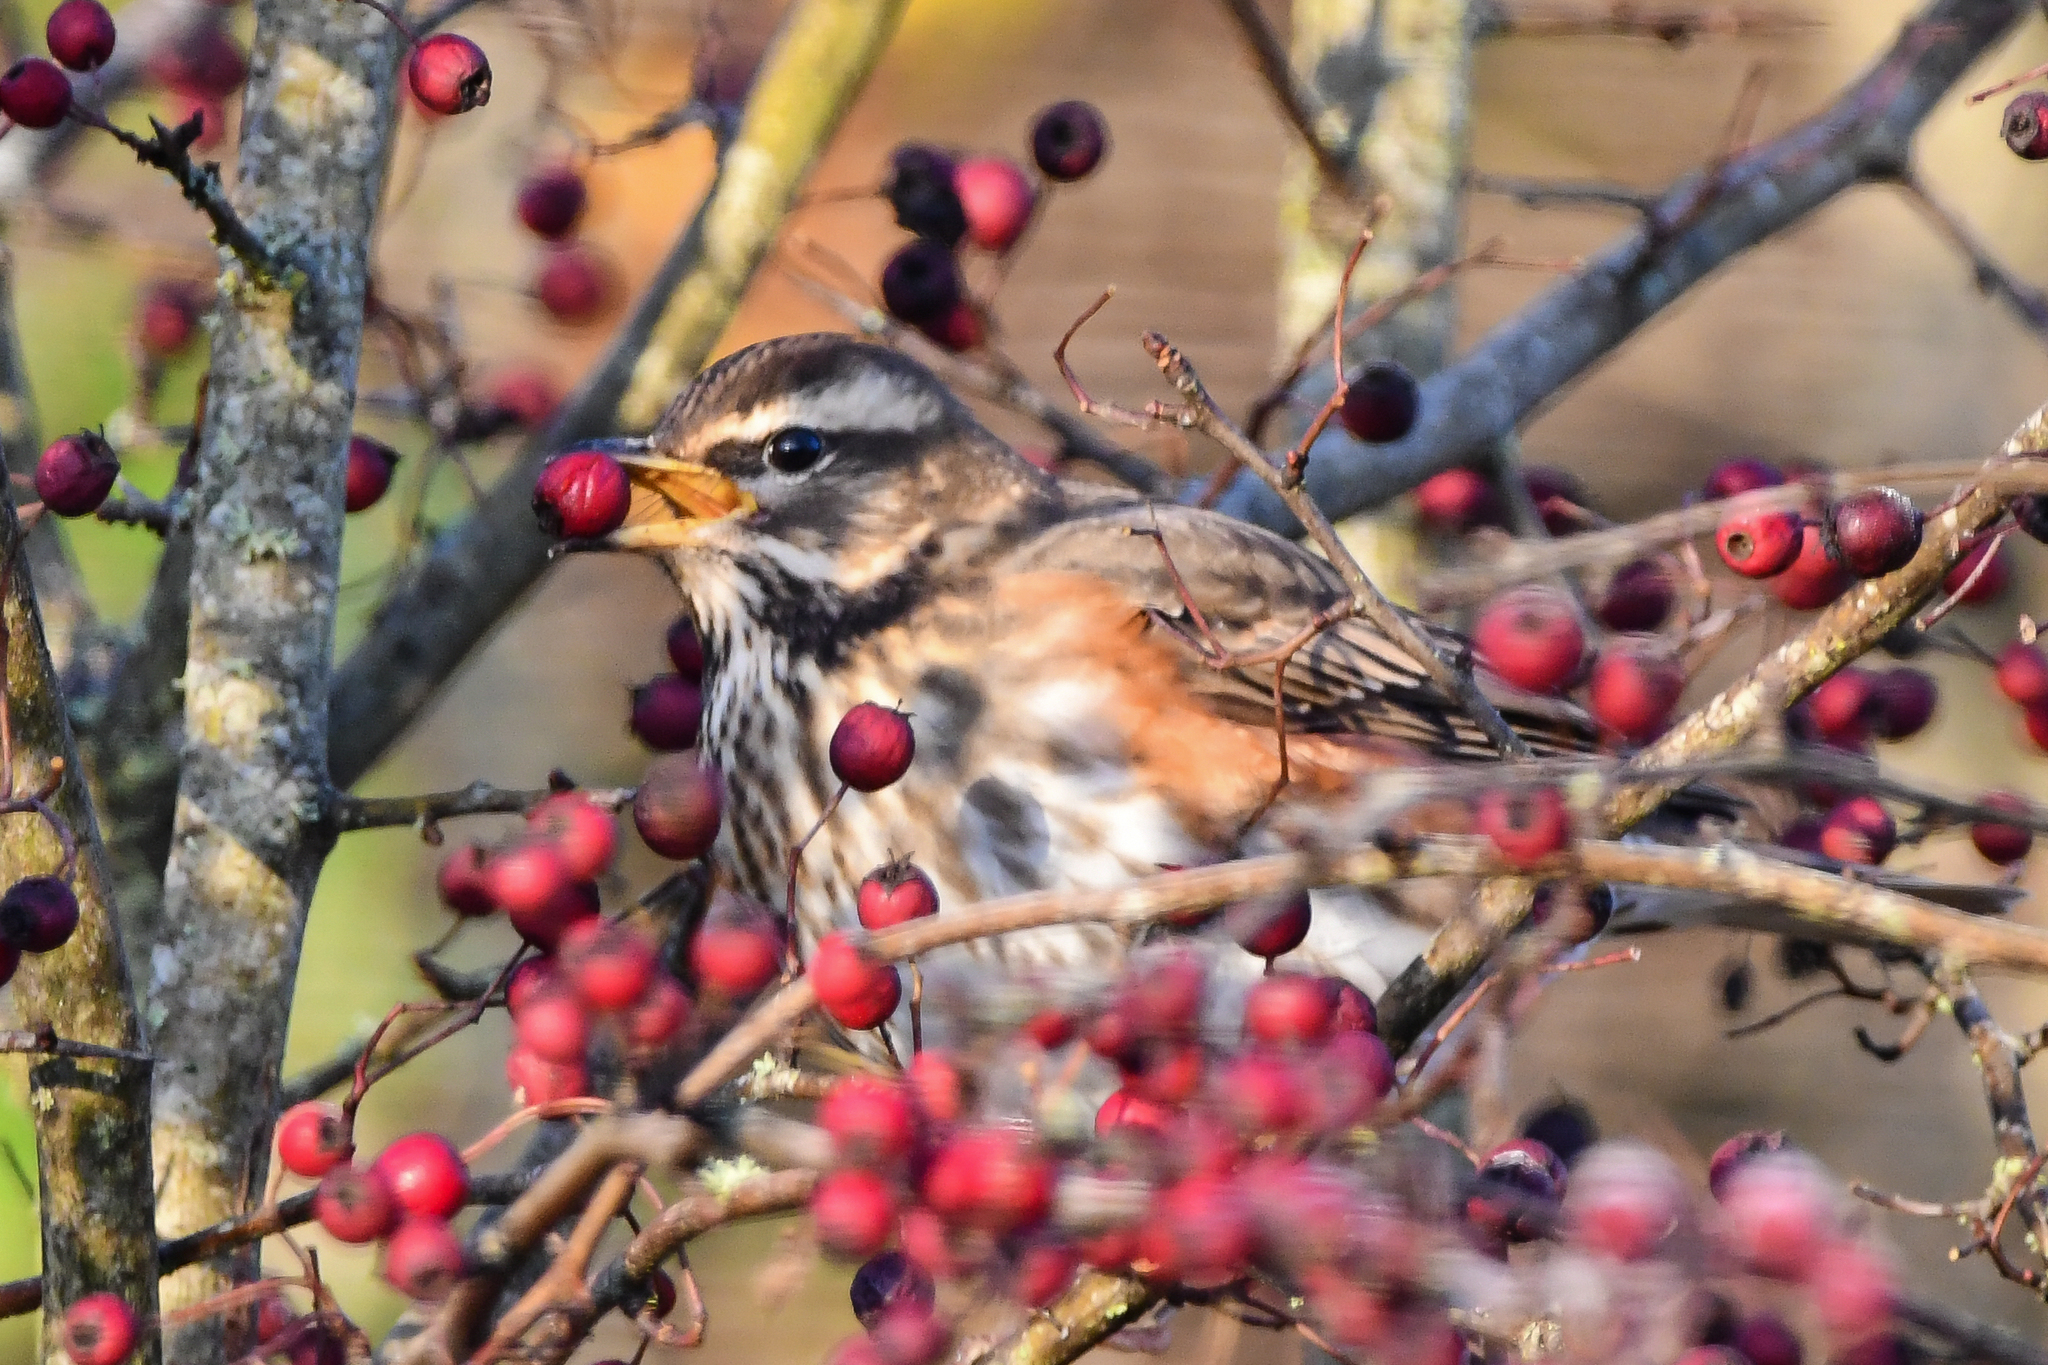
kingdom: Animalia
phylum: Chordata
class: Aves
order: Passeriformes
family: Turdidae
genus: Turdus
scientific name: Turdus iliacus
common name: Redwing
